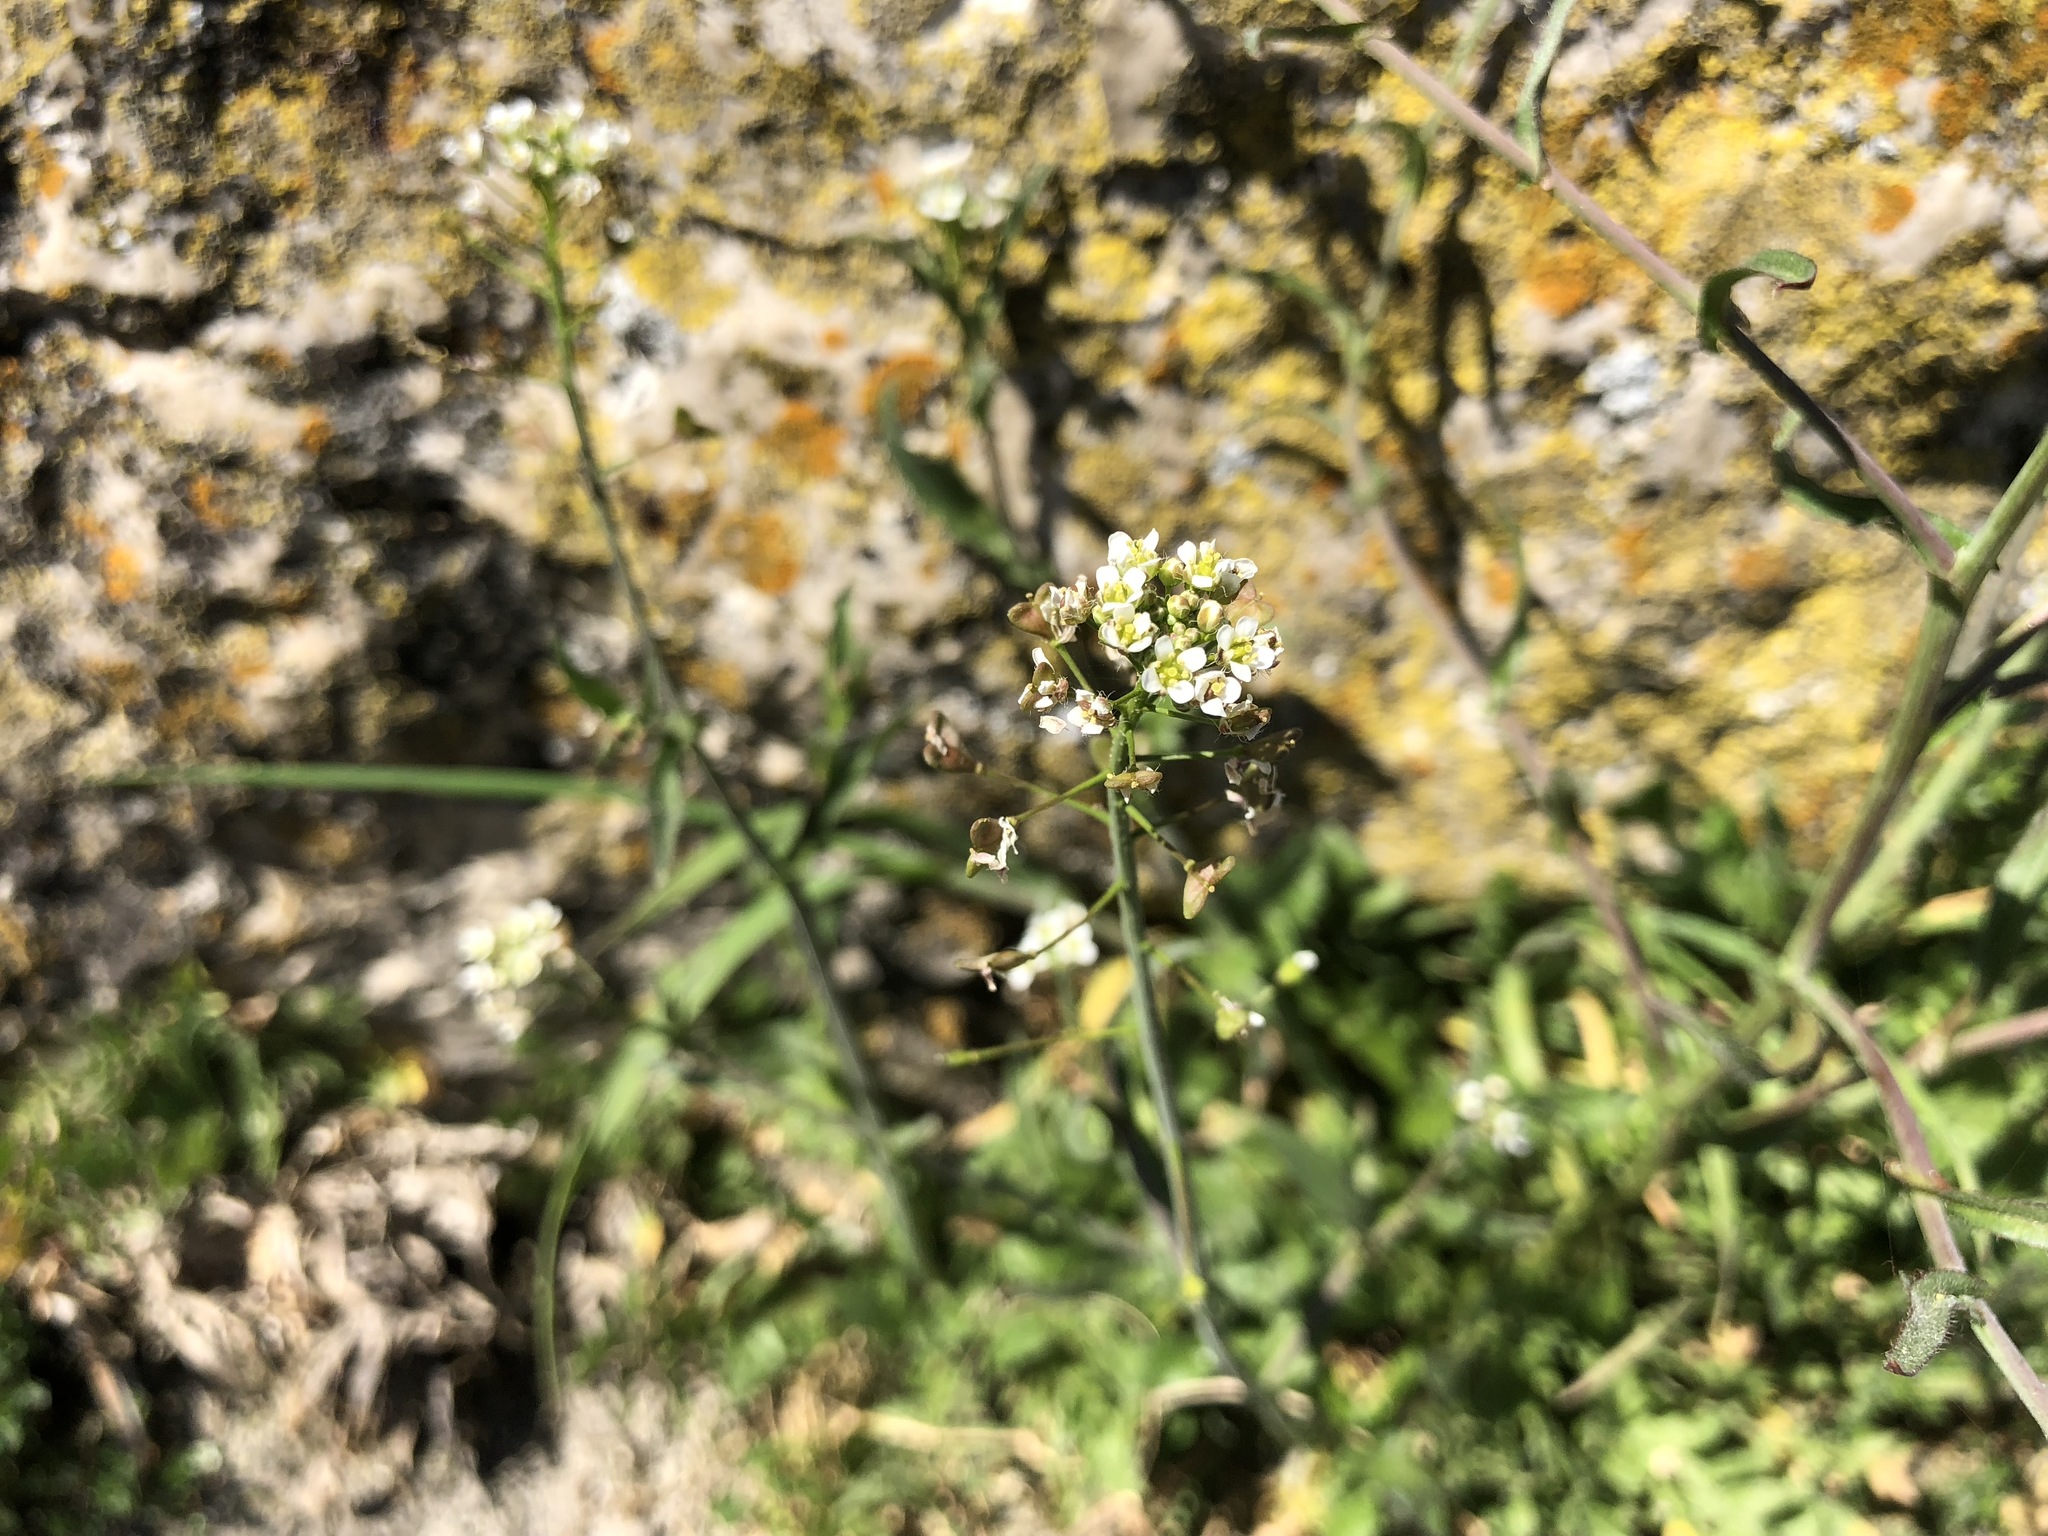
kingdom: Plantae
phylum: Tracheophyta
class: Magnoliopsida
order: Brassicales
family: Brassicaceae
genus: Capsella
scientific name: Capsella bursa-pastoris
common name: Shepherd's purse
